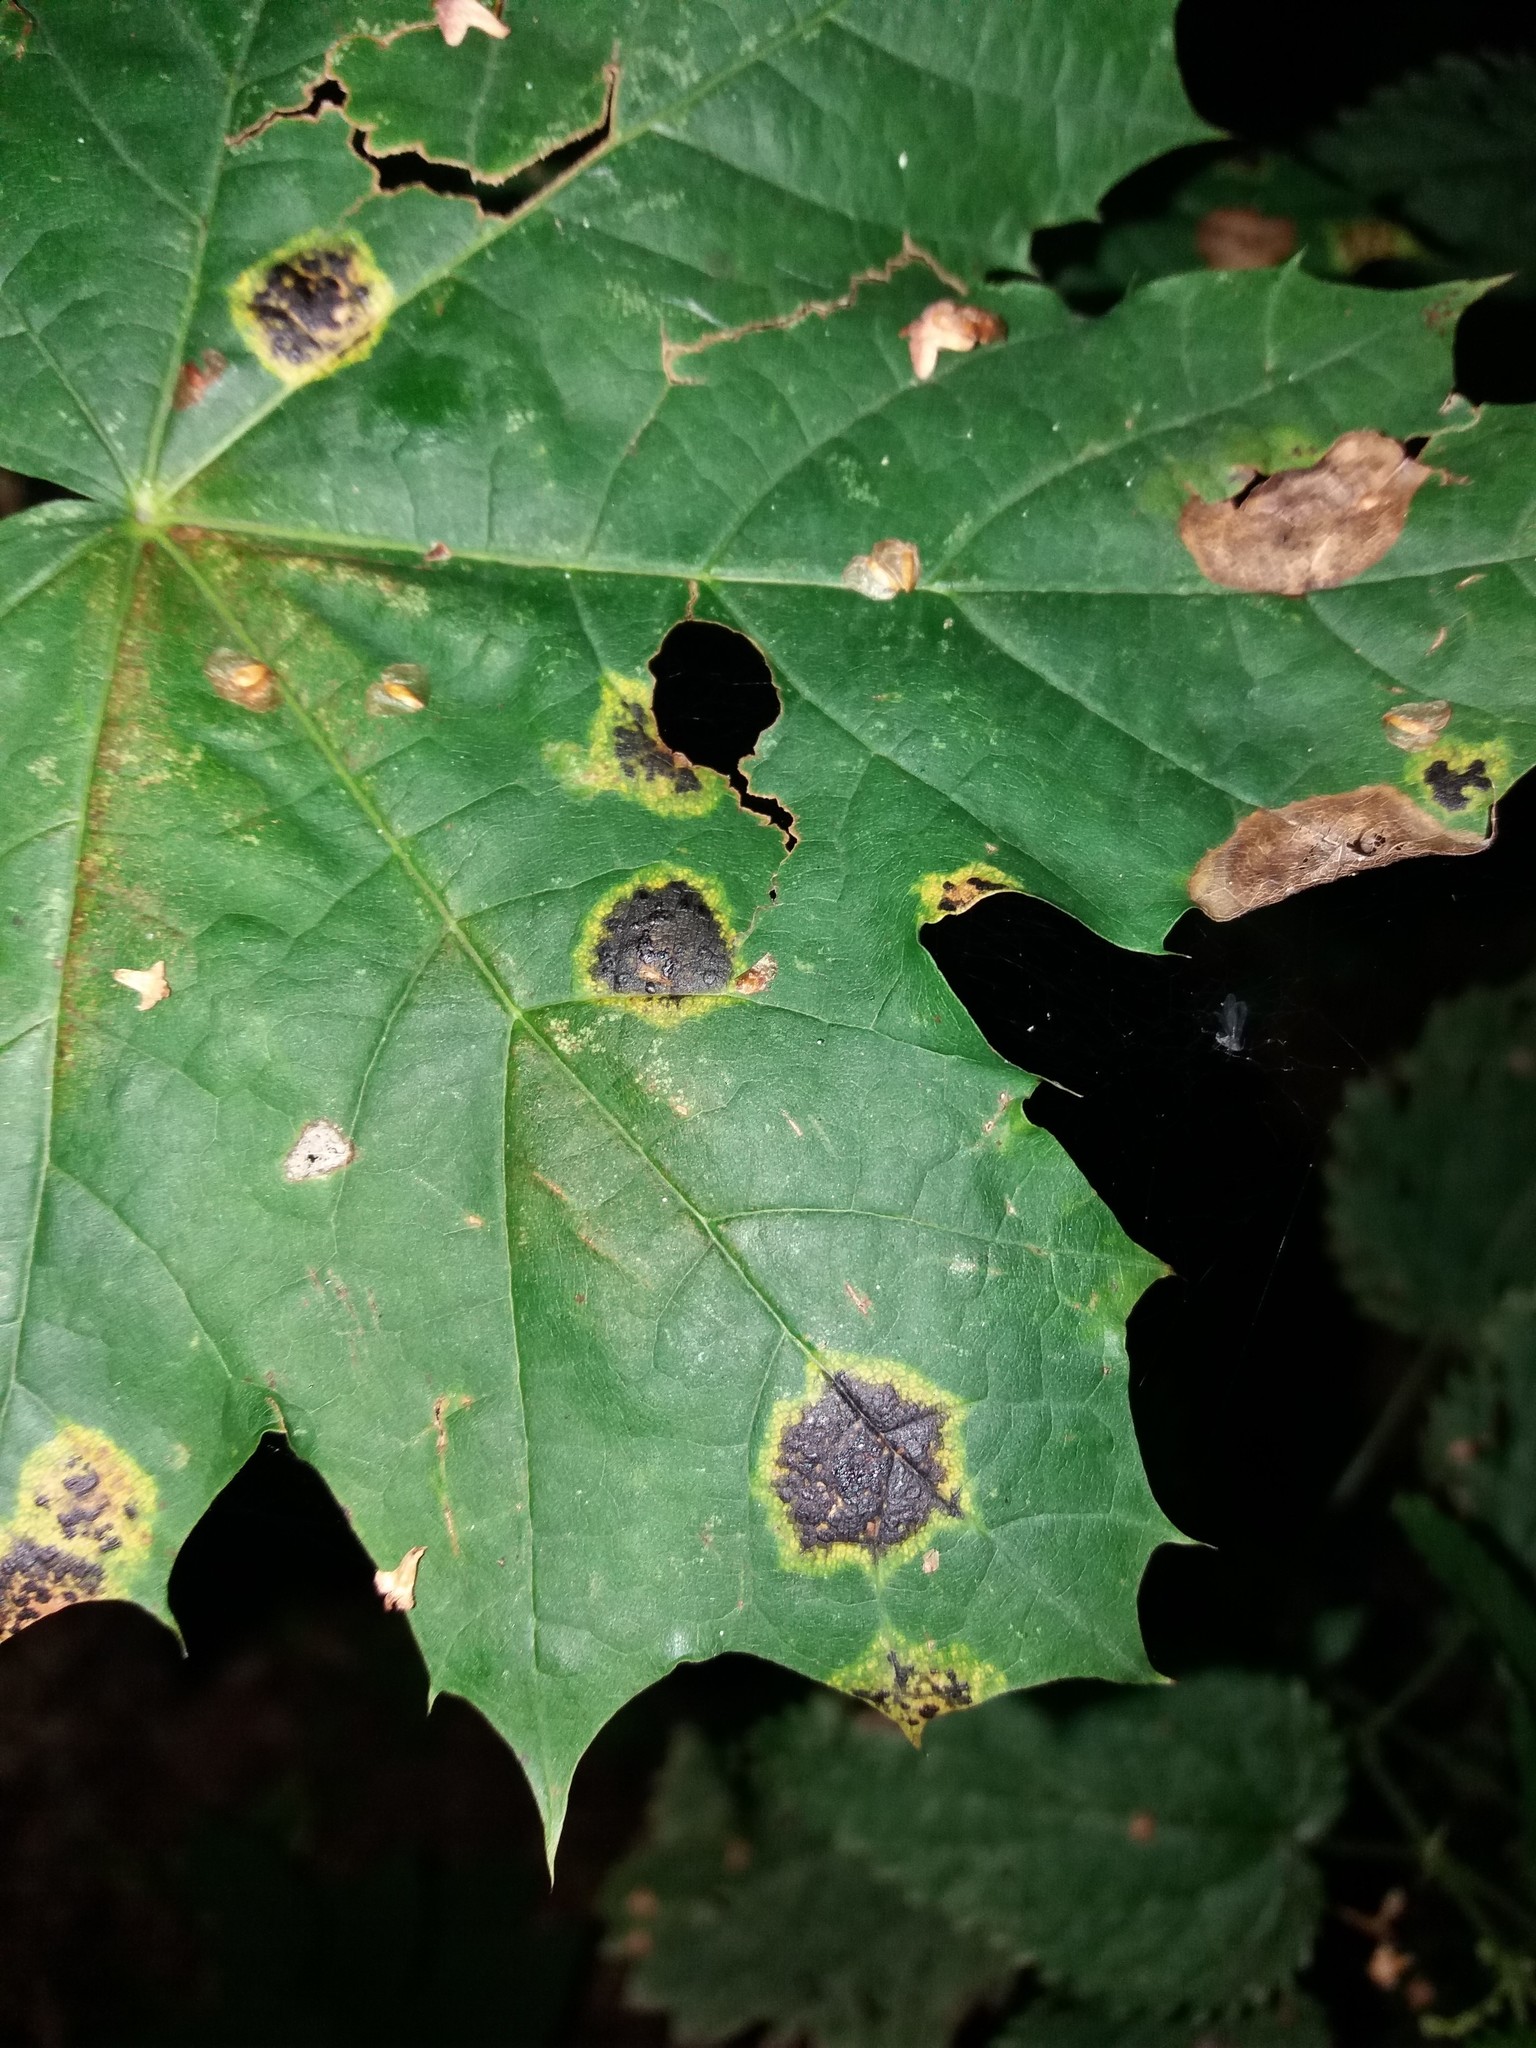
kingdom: Fungi
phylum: Ascomycota
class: Leotiomycetes
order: Rhytismatales
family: Rhytismataceae
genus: Rhytisma
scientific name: Rhytisma acerinum
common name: European tar spot
